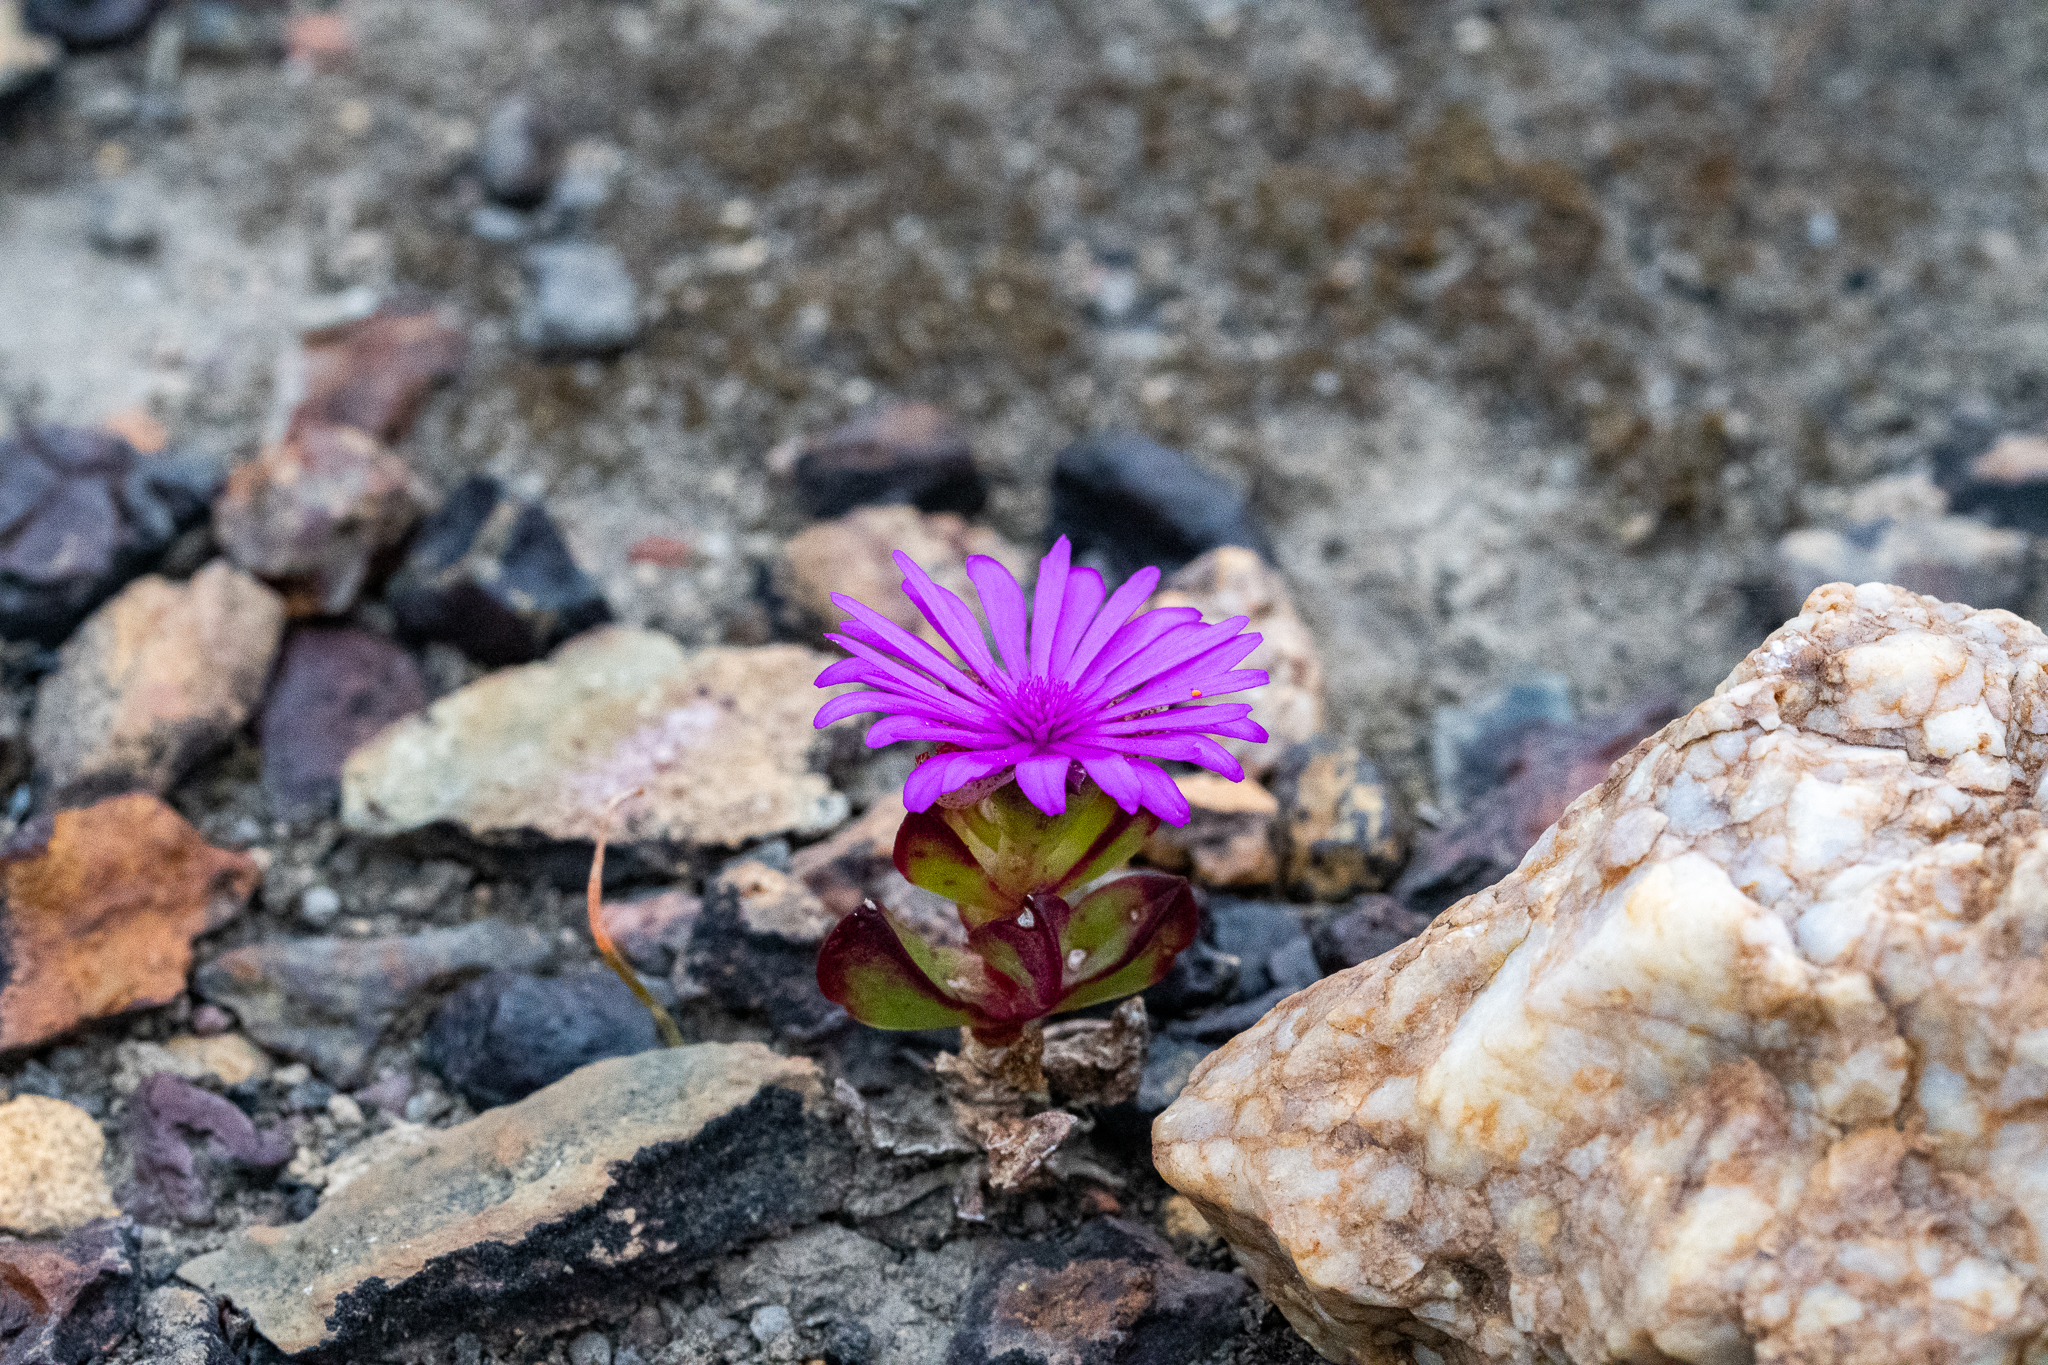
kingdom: Plantae
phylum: Tracheophyta
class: Magnoliopsida
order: Caryophyllales
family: Aizoaceae
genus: Erepsia
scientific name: Erepsia inclaudens
